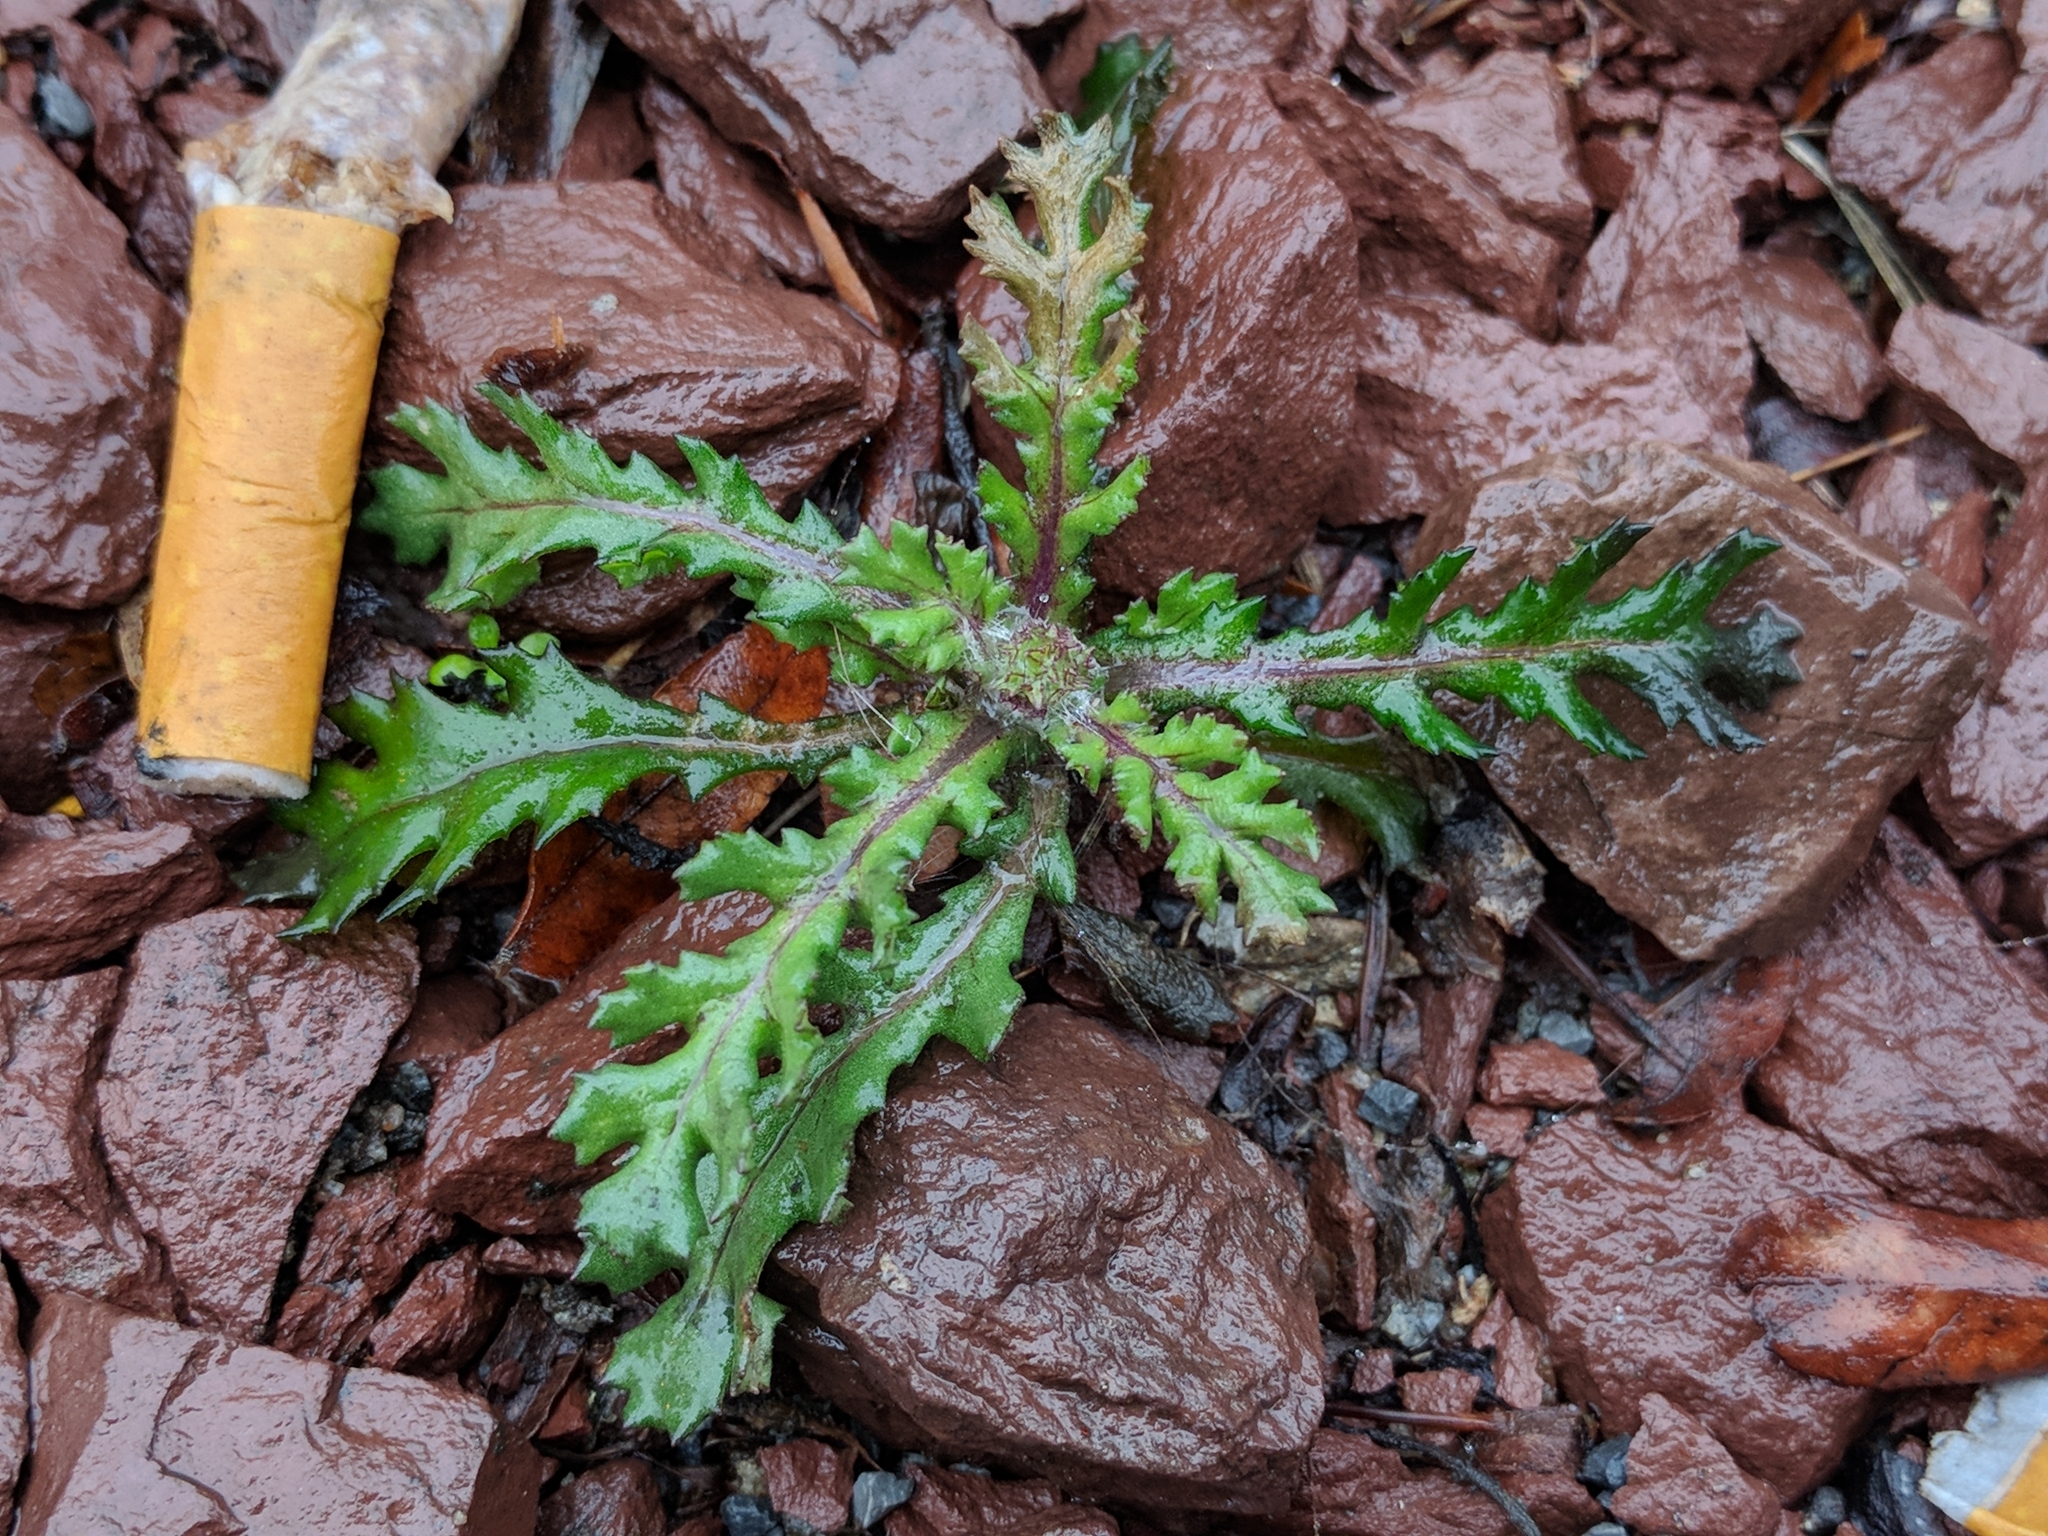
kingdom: Plantae
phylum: Tracheophyta
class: Magnoliopsida
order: Asterales
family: Asteraceae
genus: Senecio
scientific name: Senecio vulgaris
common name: Old-man-in-the-spring
